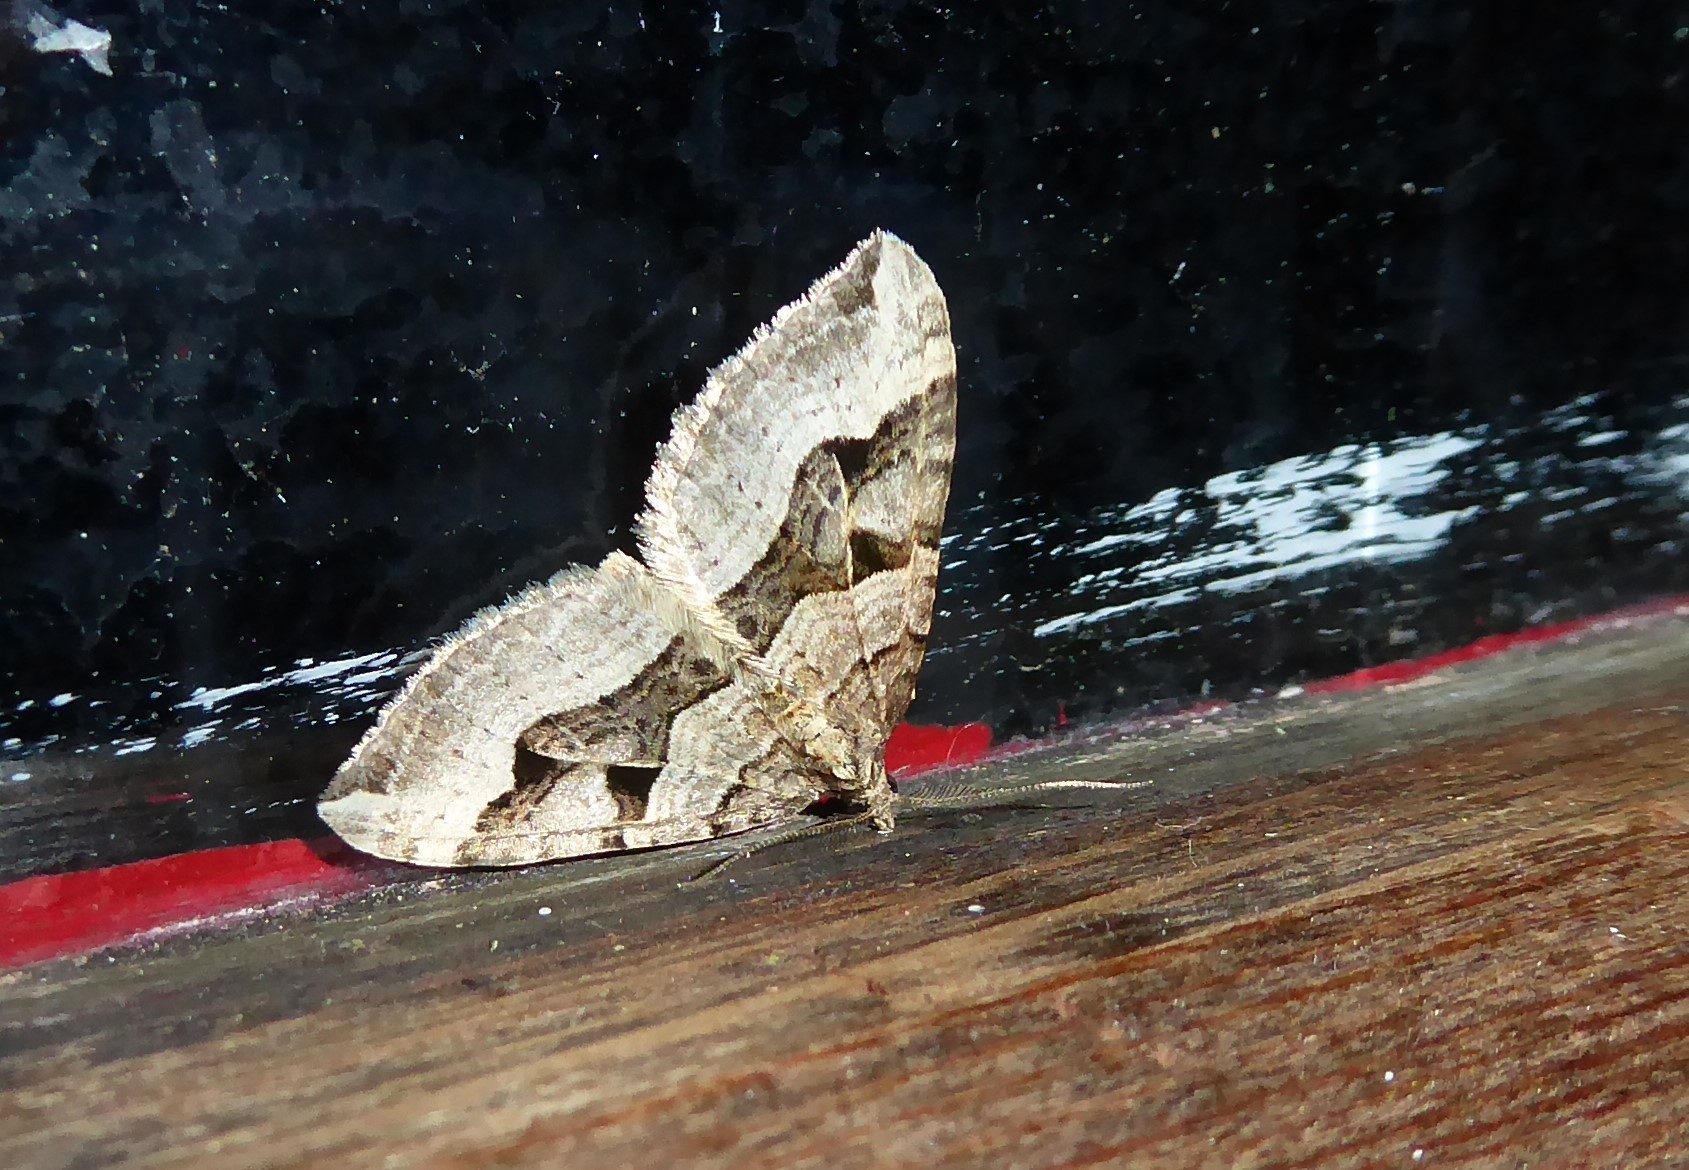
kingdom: Animalia
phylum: Arthropoda
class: Insecta
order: Lepidoptera
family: Geometridae
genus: Xanthorhoe
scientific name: Xanthorhoe semifissata
